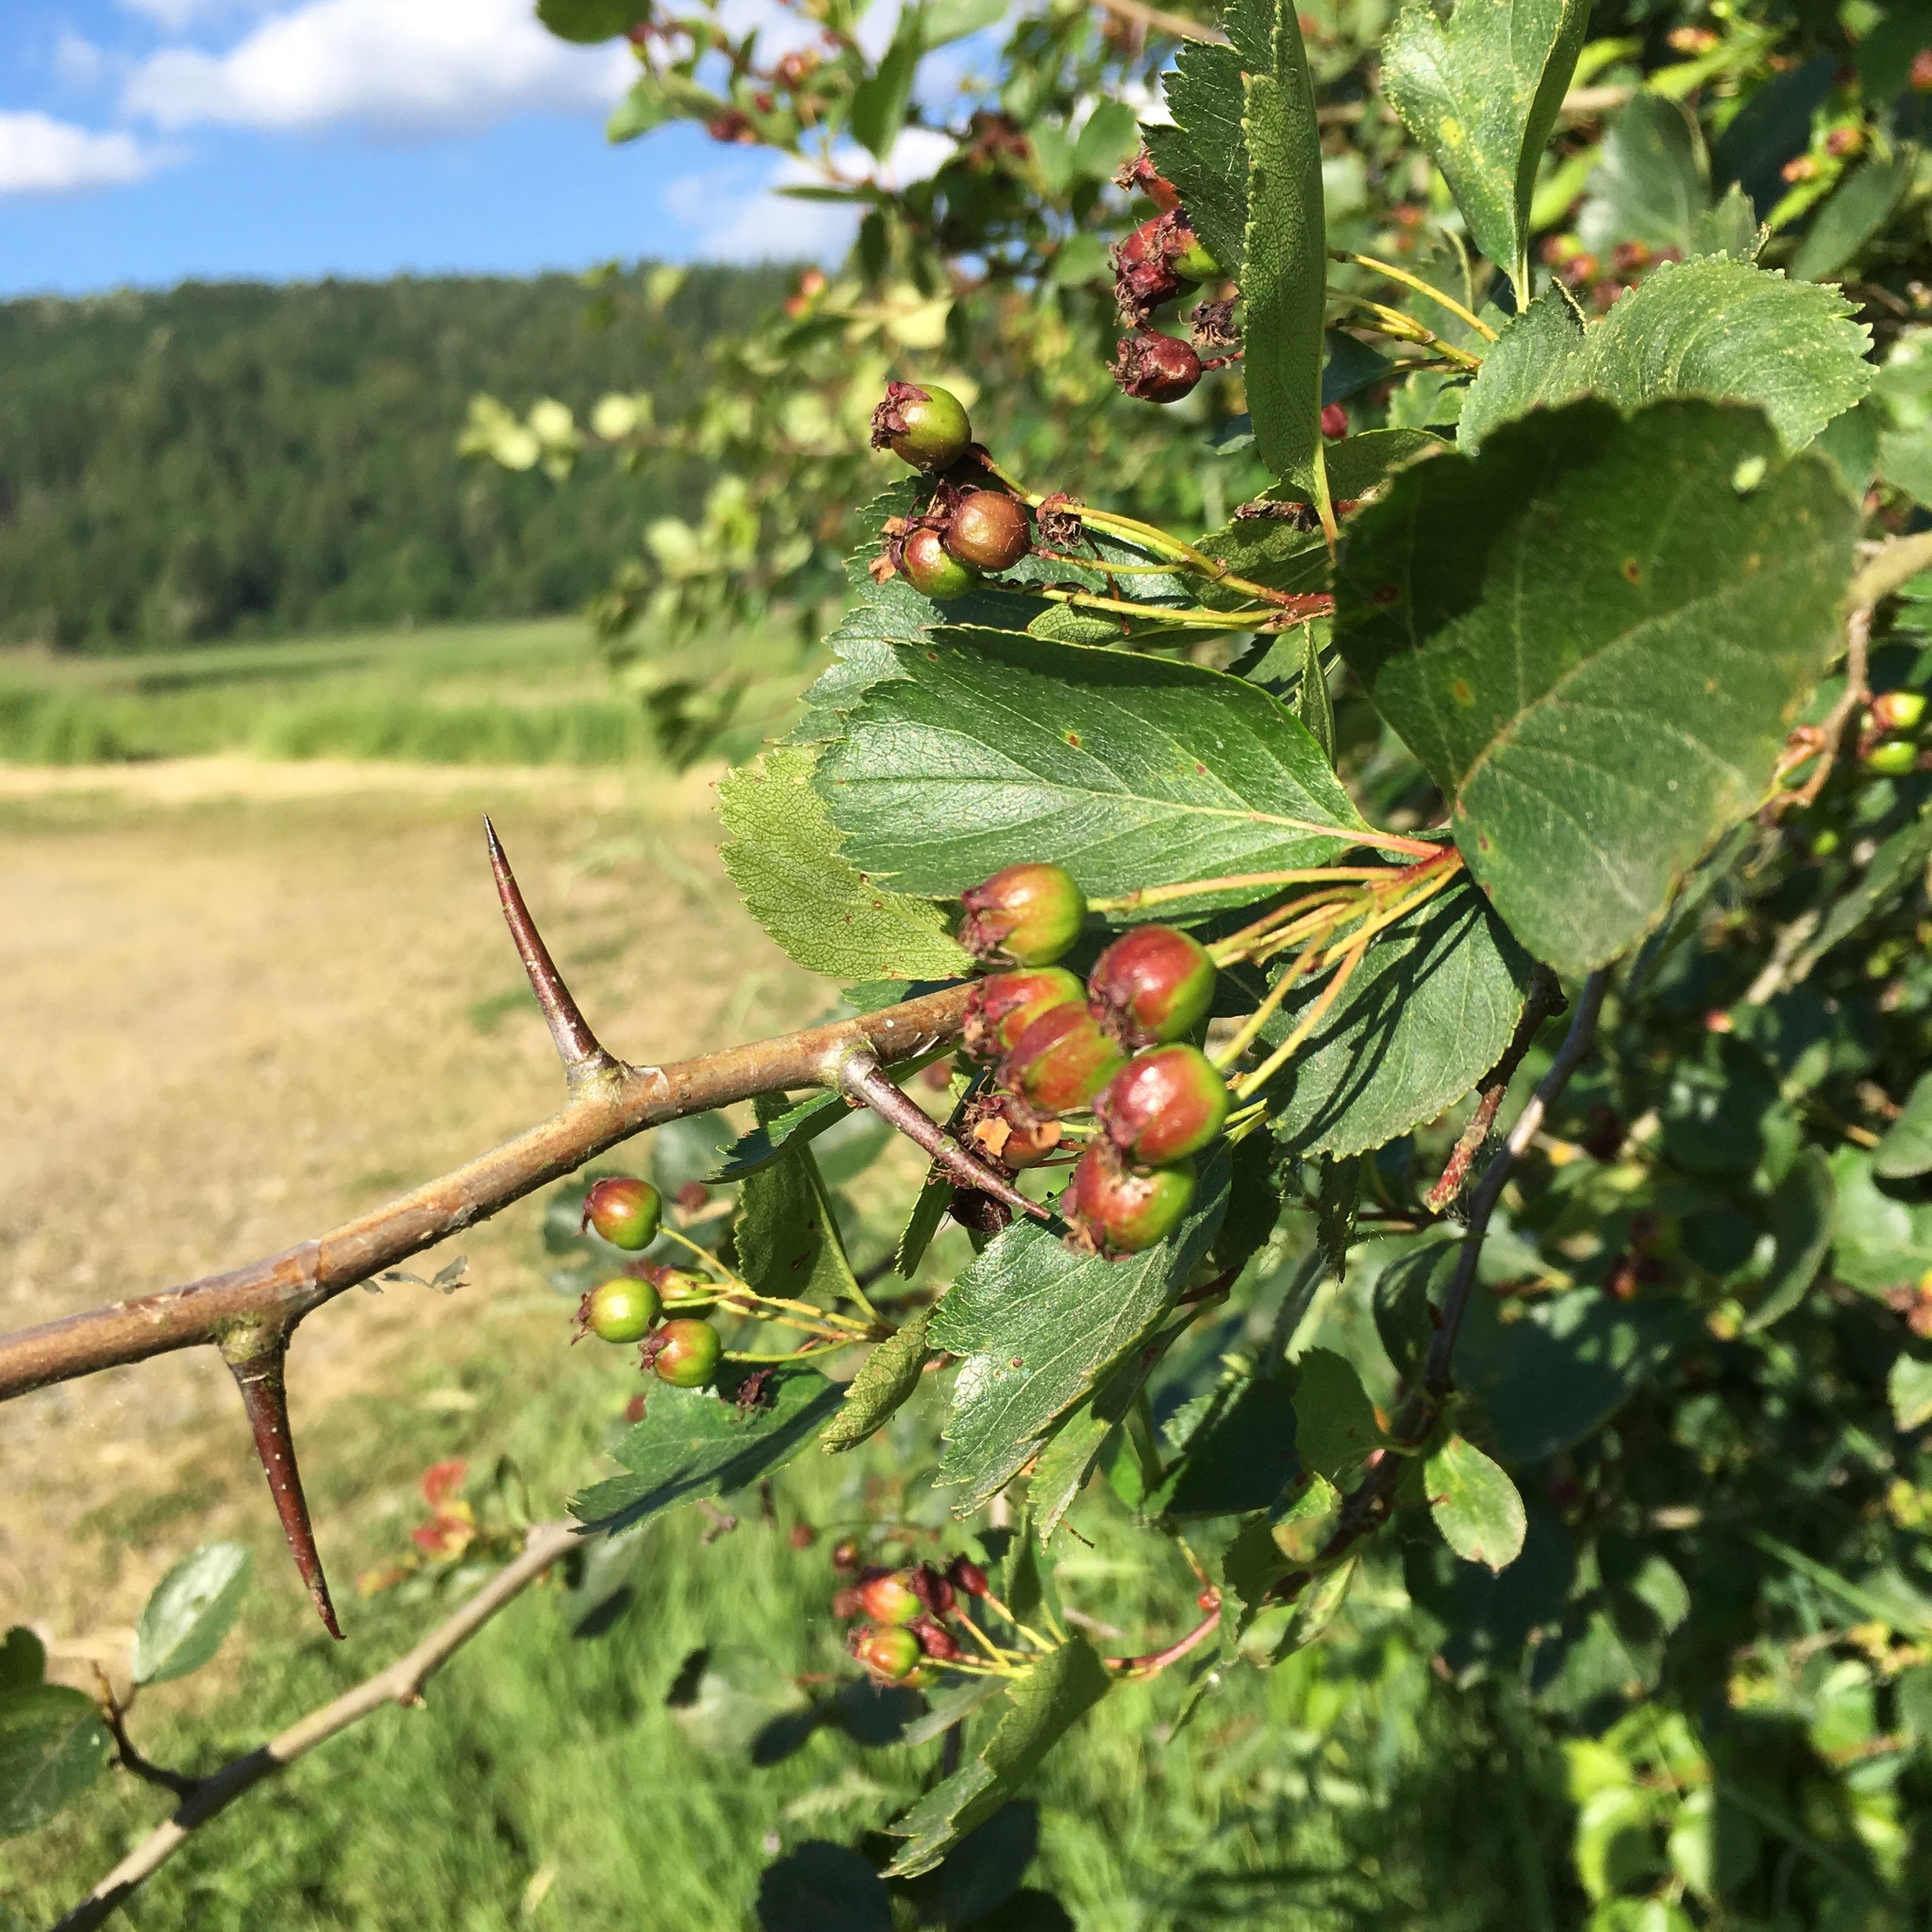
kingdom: Plantae
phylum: Tracheophyta
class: Magnoliopsida
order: Rosales
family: Rosaceae
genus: Crataegus
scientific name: Crataegus douglasii
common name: Black hawthorn
